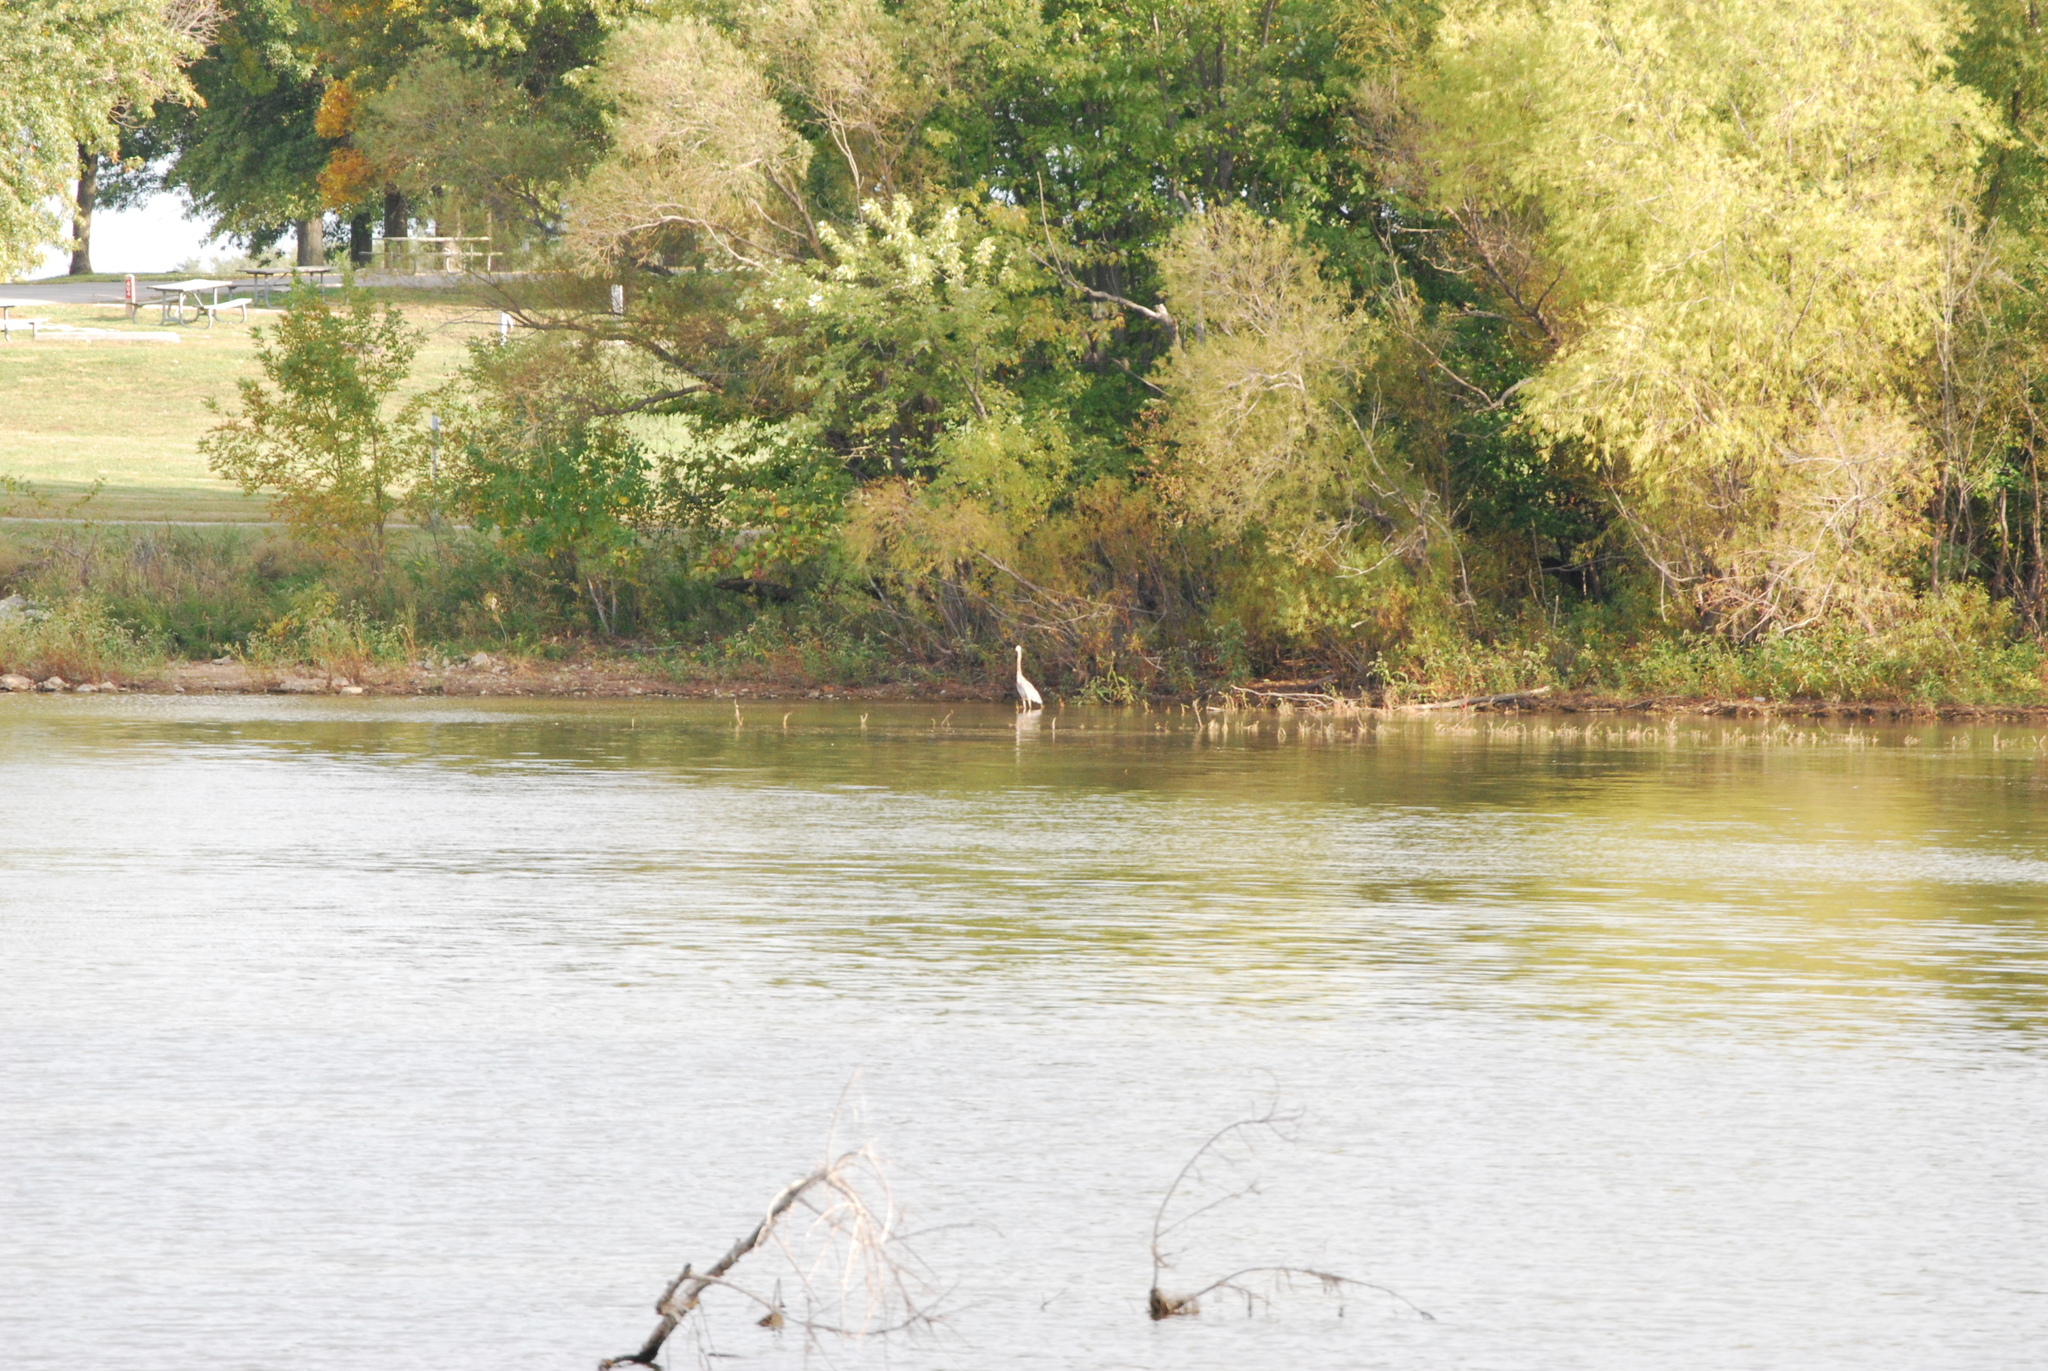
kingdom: Animalia
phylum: Chordata
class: Aves
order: Pelecaniformes
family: Ardeidae
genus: Ardea
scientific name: Ardea herodias
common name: Great blue heron
